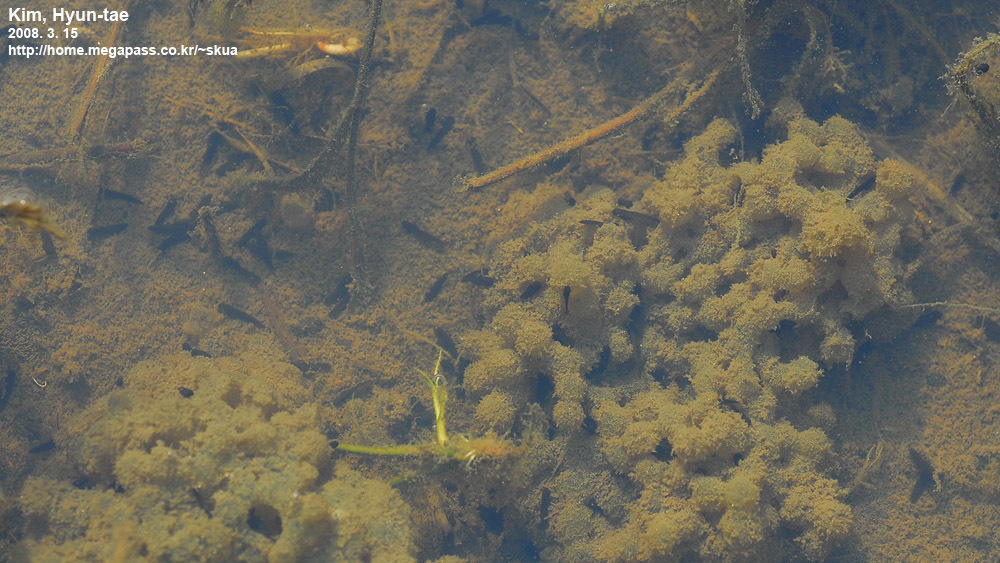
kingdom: Animalia
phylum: Chordata
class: Amphibia
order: Anura
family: Ranidae
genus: Rana
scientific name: Rana coreana
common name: Korean brown frog
